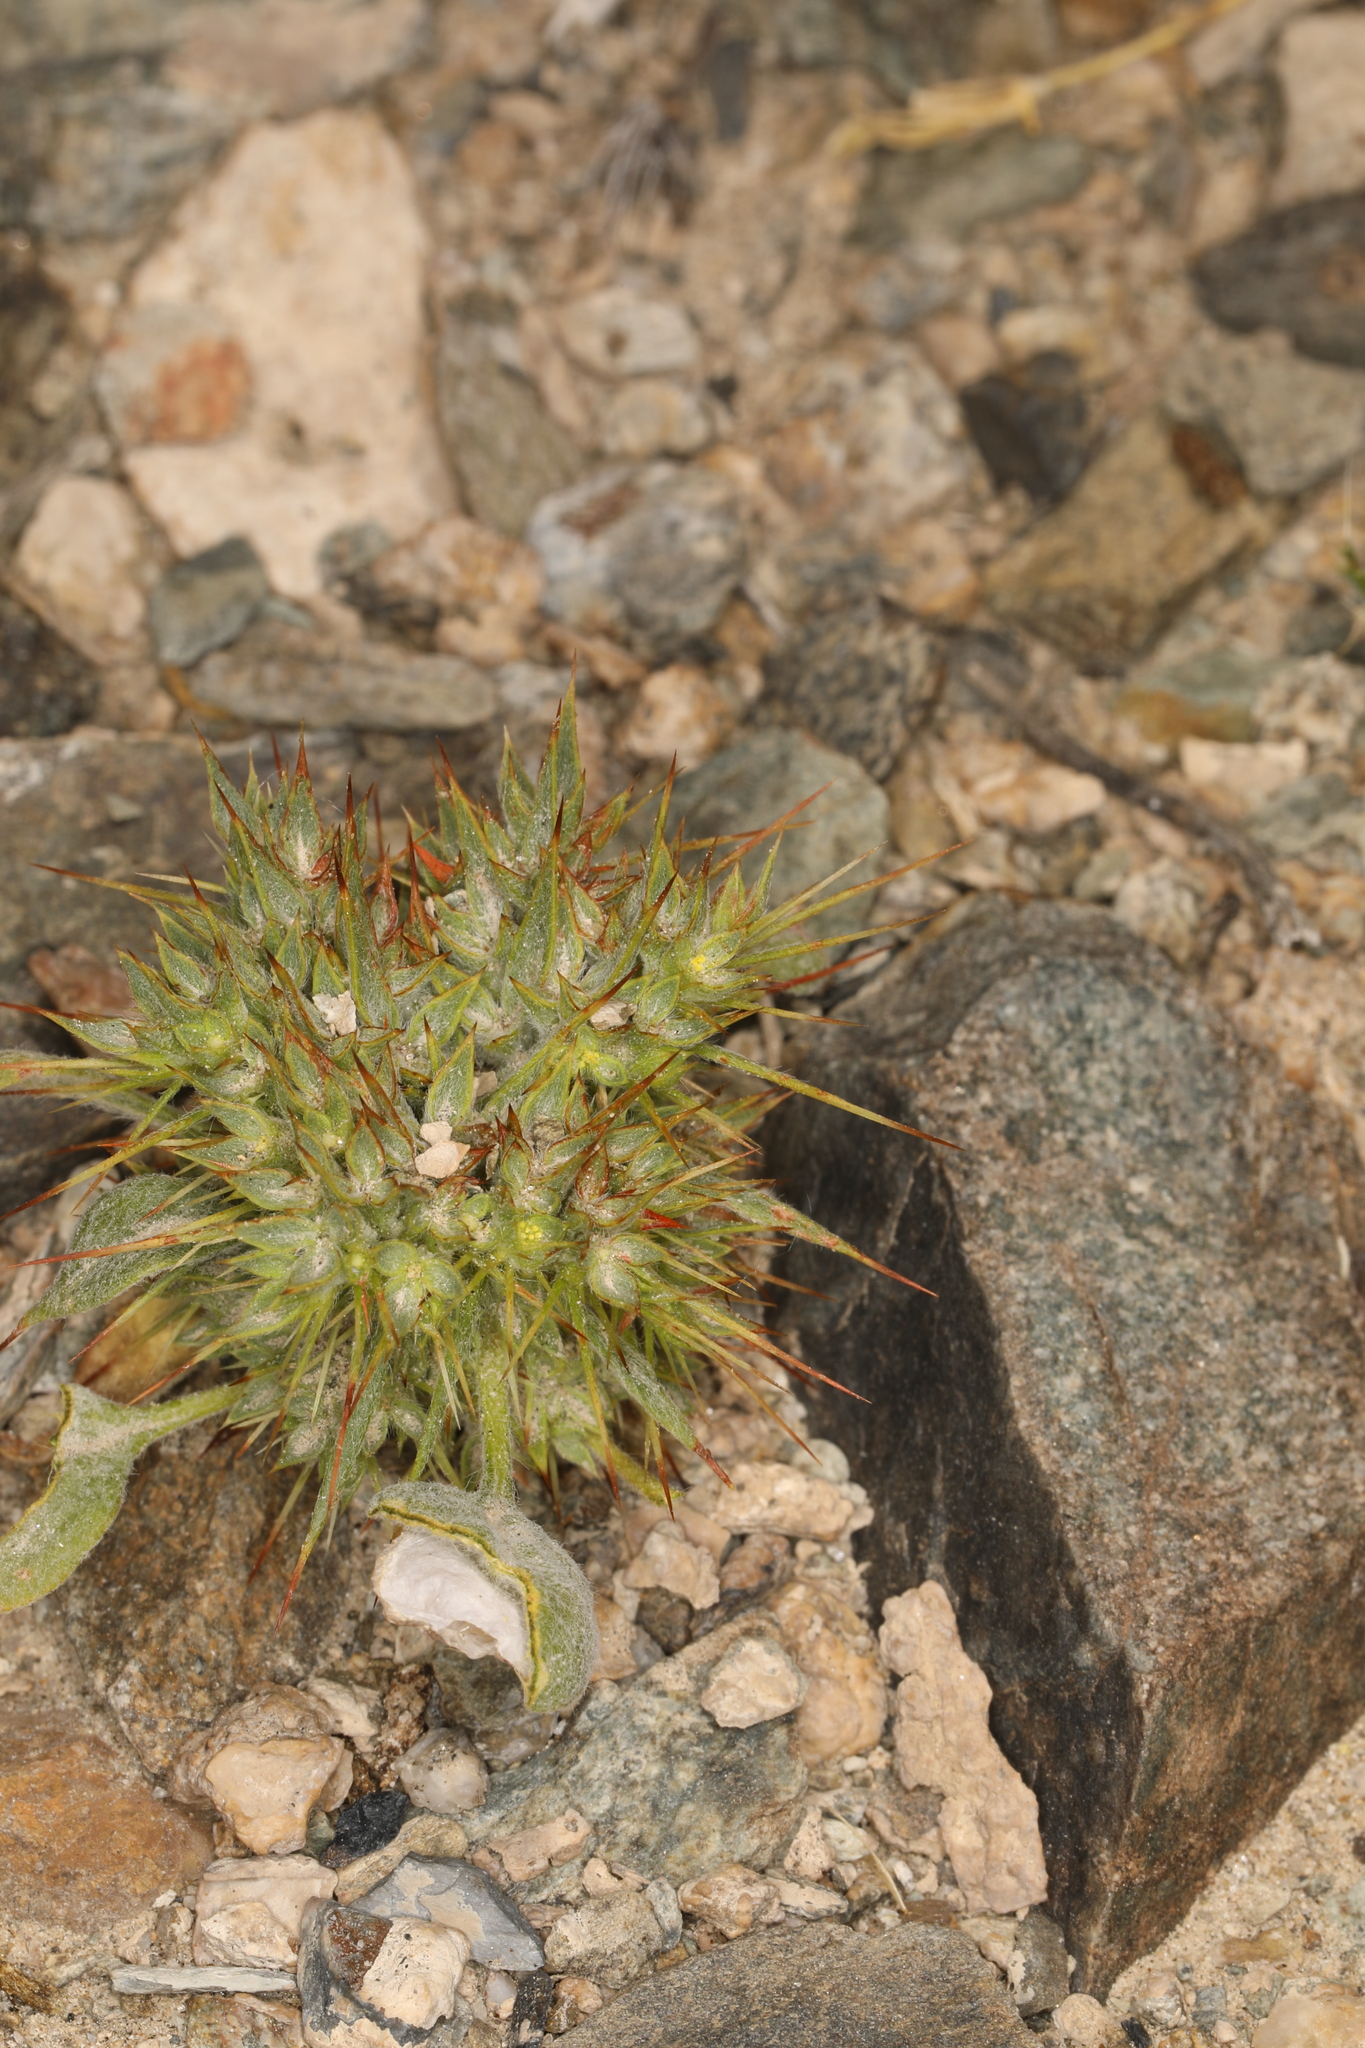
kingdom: Plantae
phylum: Tracheophyta
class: Magnoliopsida
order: Caryophyllales
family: Polygonaceae
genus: Chorizanthe
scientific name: Chorizanthe rigida
